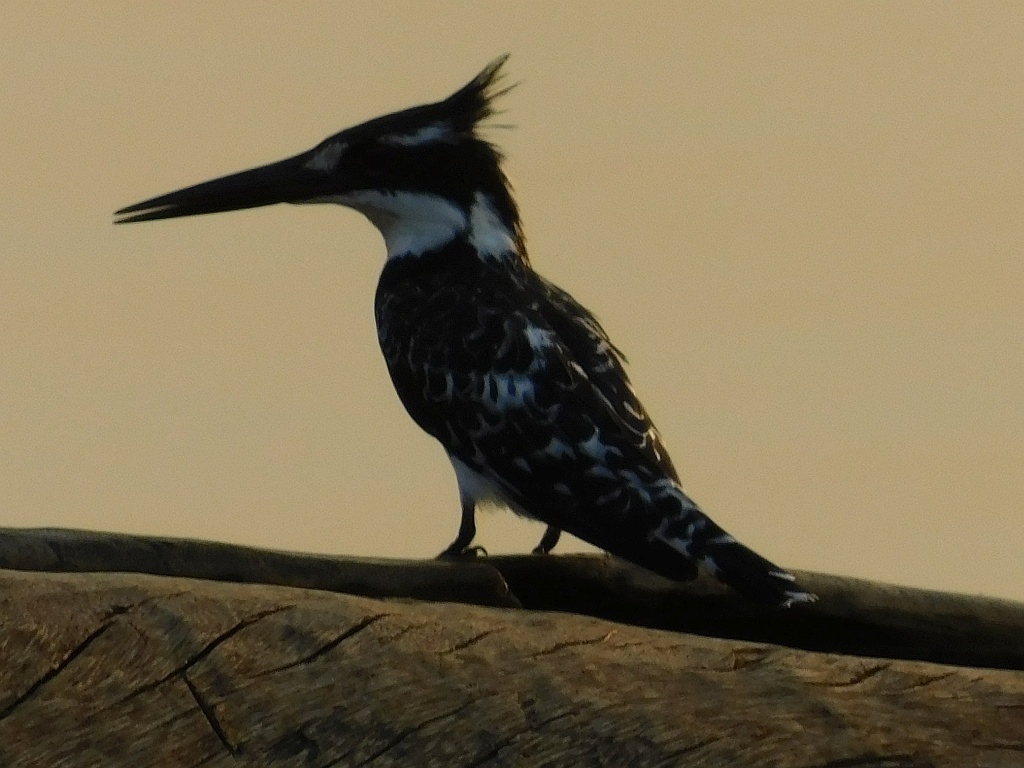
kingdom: Animalia
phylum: Chordata
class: Aves
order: Coraciiformes
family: Alcedinidae
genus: Ceryle
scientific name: Ceryle rudis
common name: Pied kingfisher
